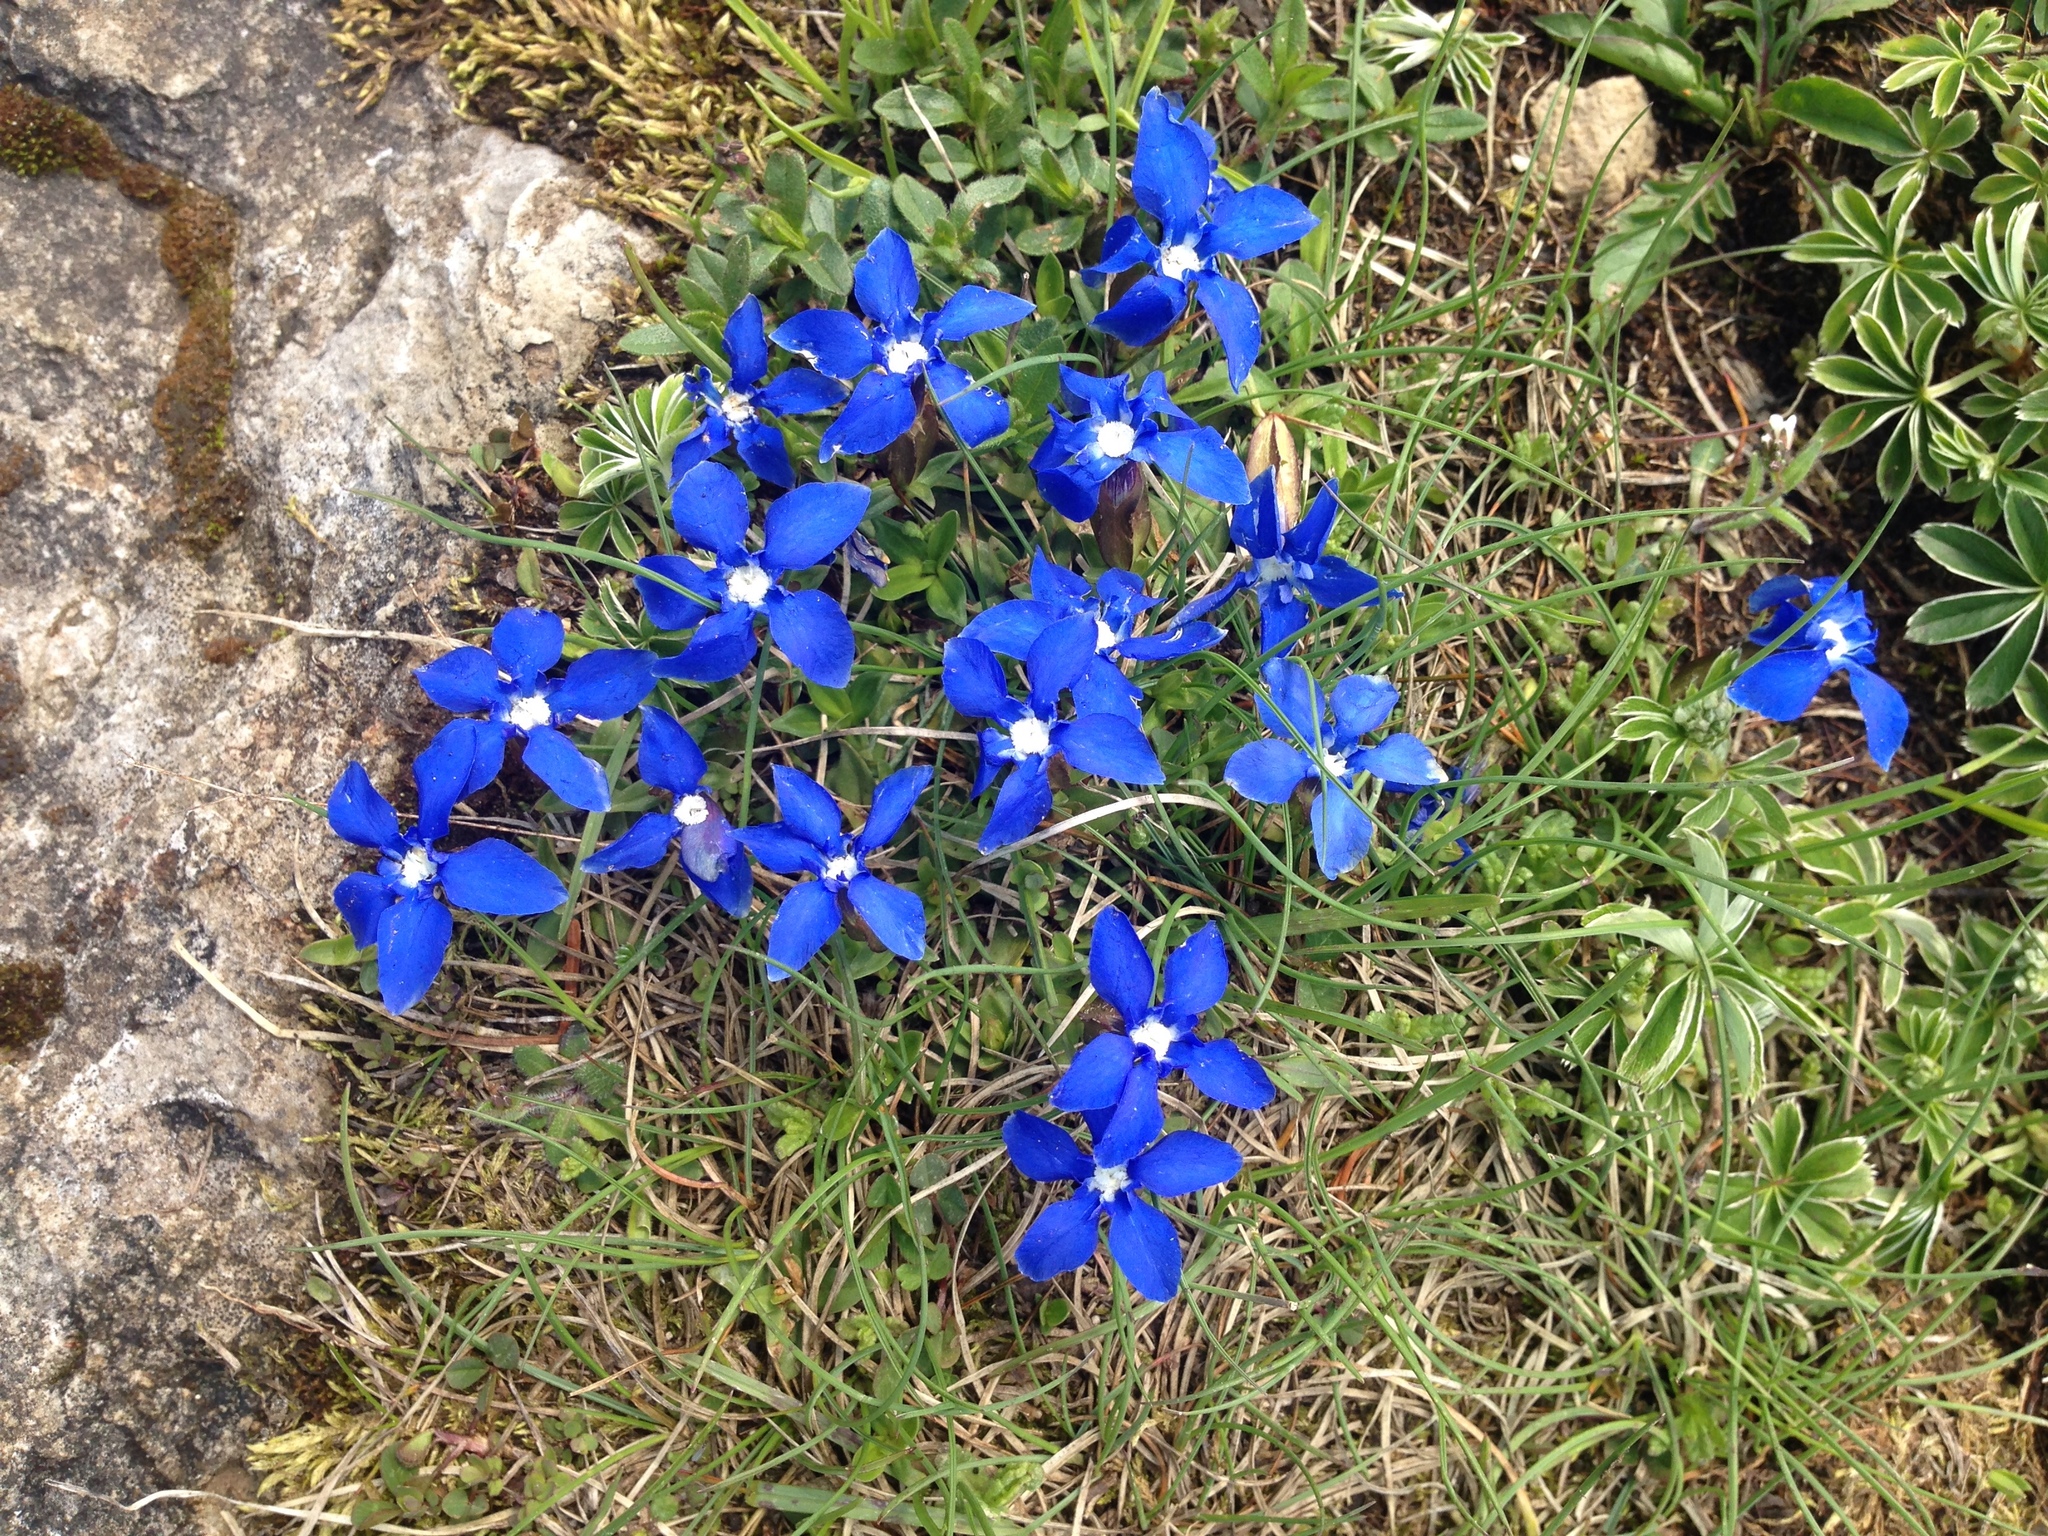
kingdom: Plantae
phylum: Tracheophyta
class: Magnoliopsida
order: Gentianales
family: Gentianaceae
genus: Gentiana
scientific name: Gentiana verna
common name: Spring gentian
